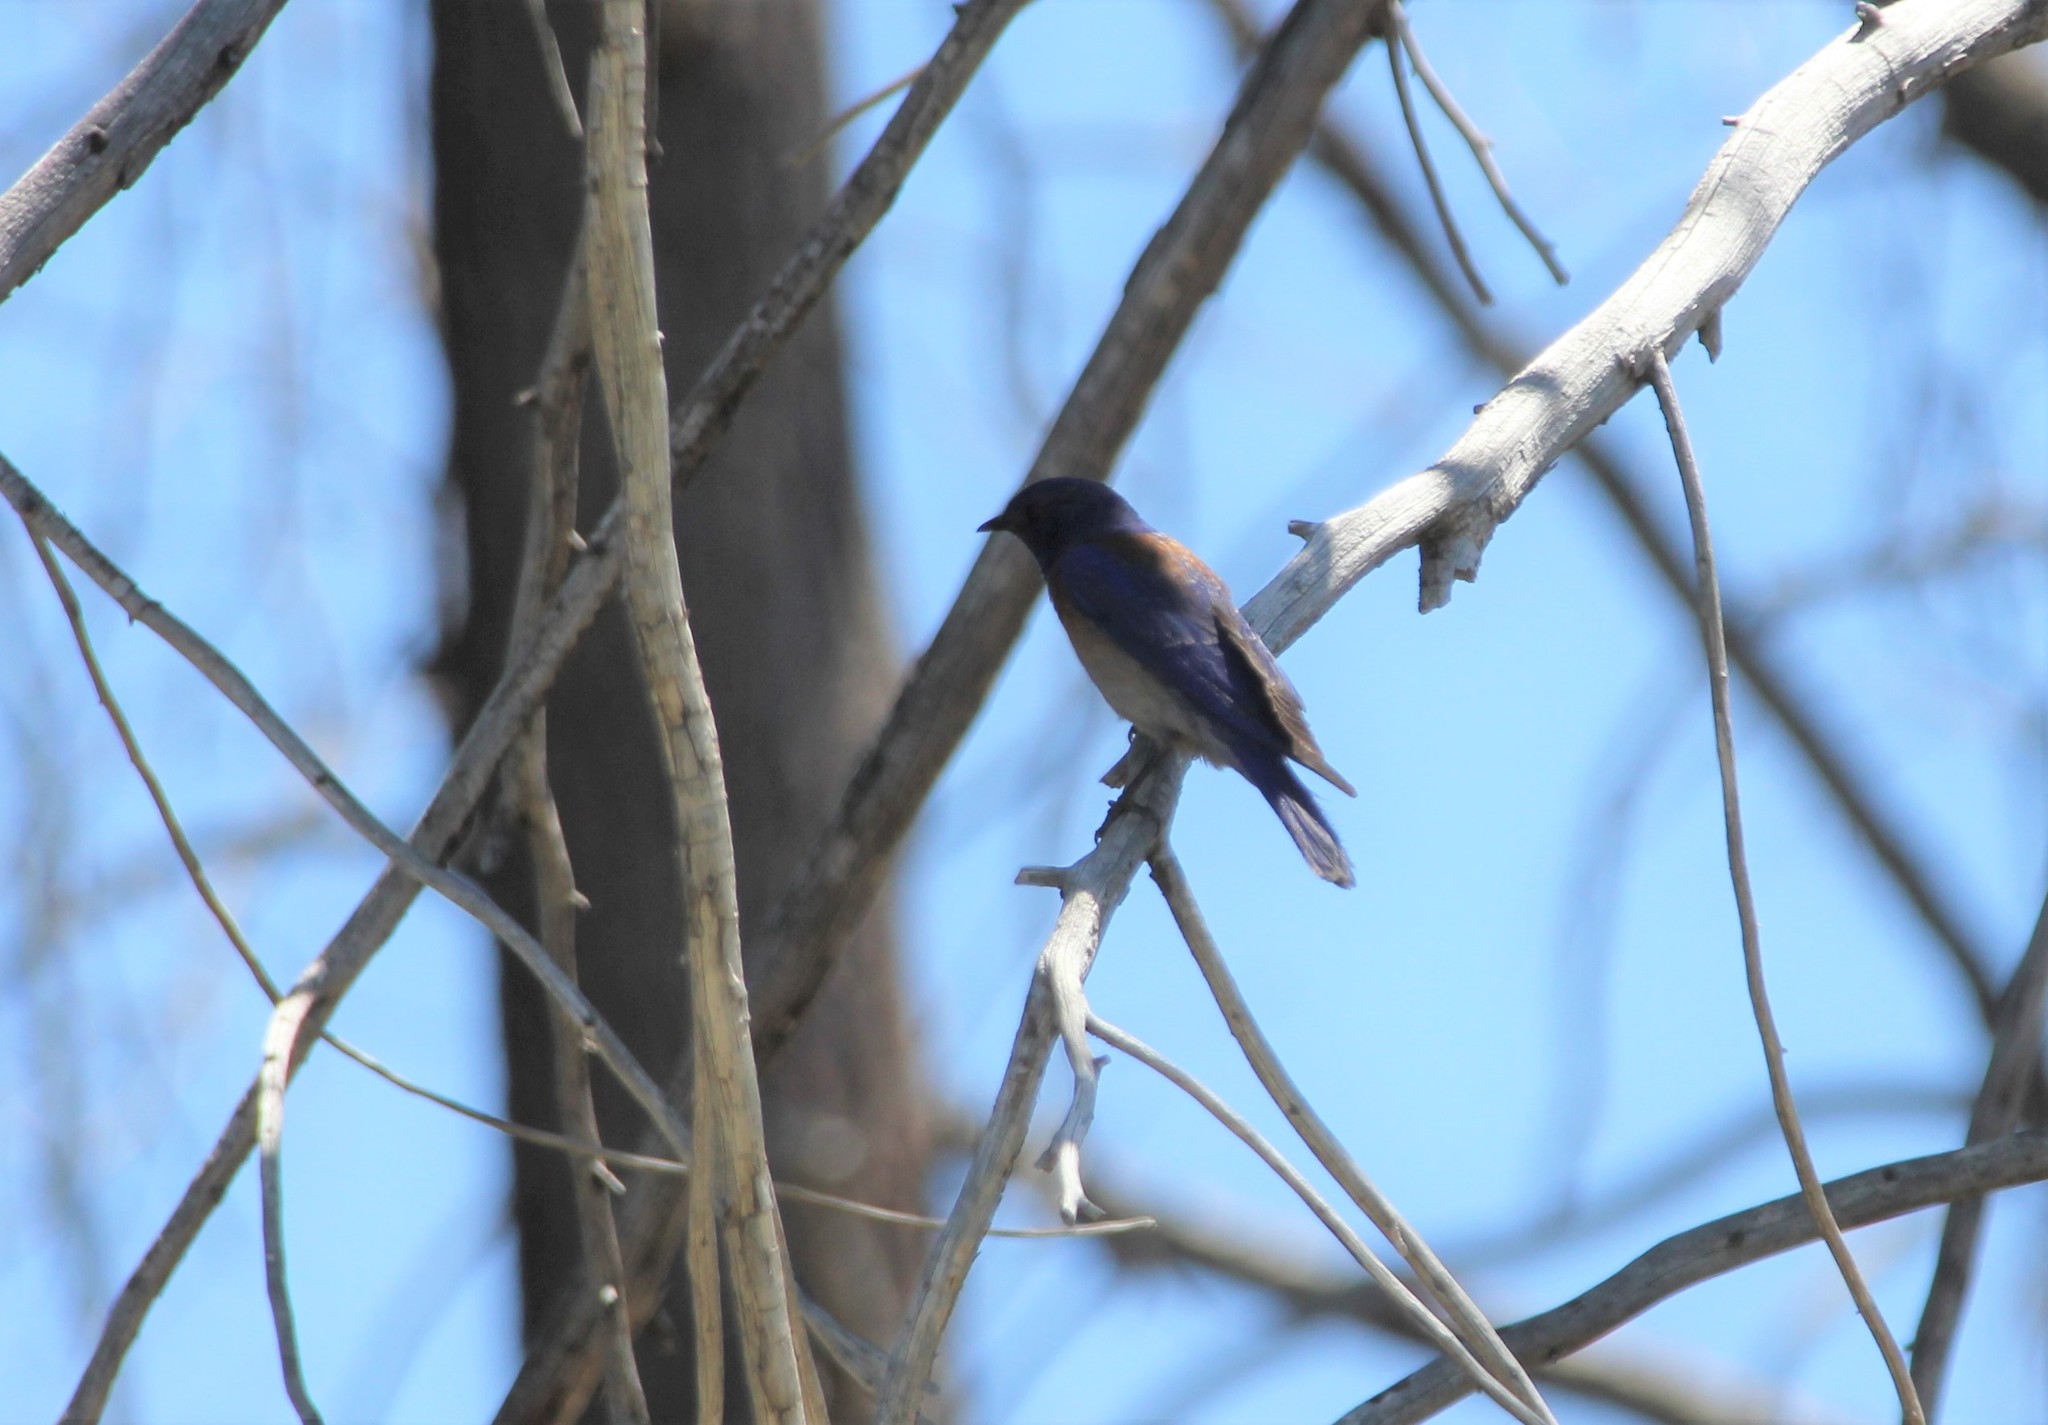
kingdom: Animalia
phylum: Chordata
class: Aves
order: Passeriformes
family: Turdidae
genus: Sialia
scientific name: Sialia mexicana
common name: Western bluebird
